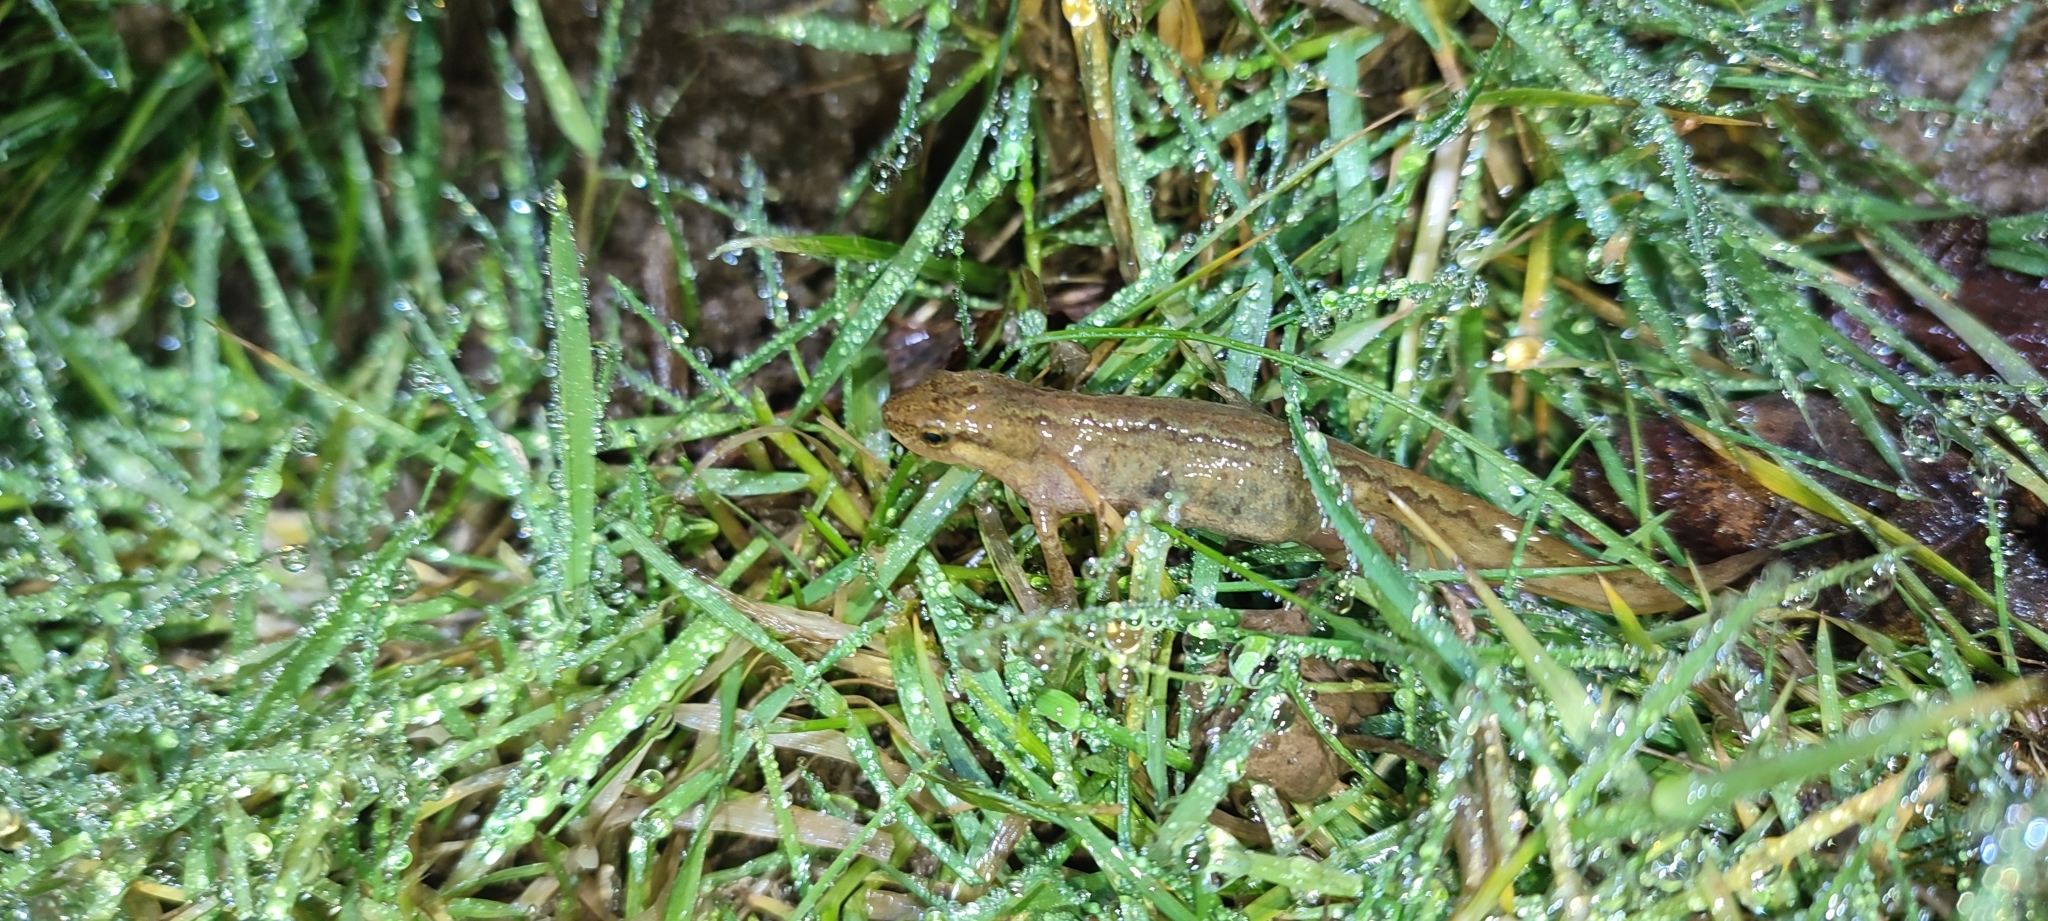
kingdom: Animalia
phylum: Chordata
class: Amphibia
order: Caudata
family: Salamandridae
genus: Lissotriton
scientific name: Lissotriton helveticus
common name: Palmate newt
